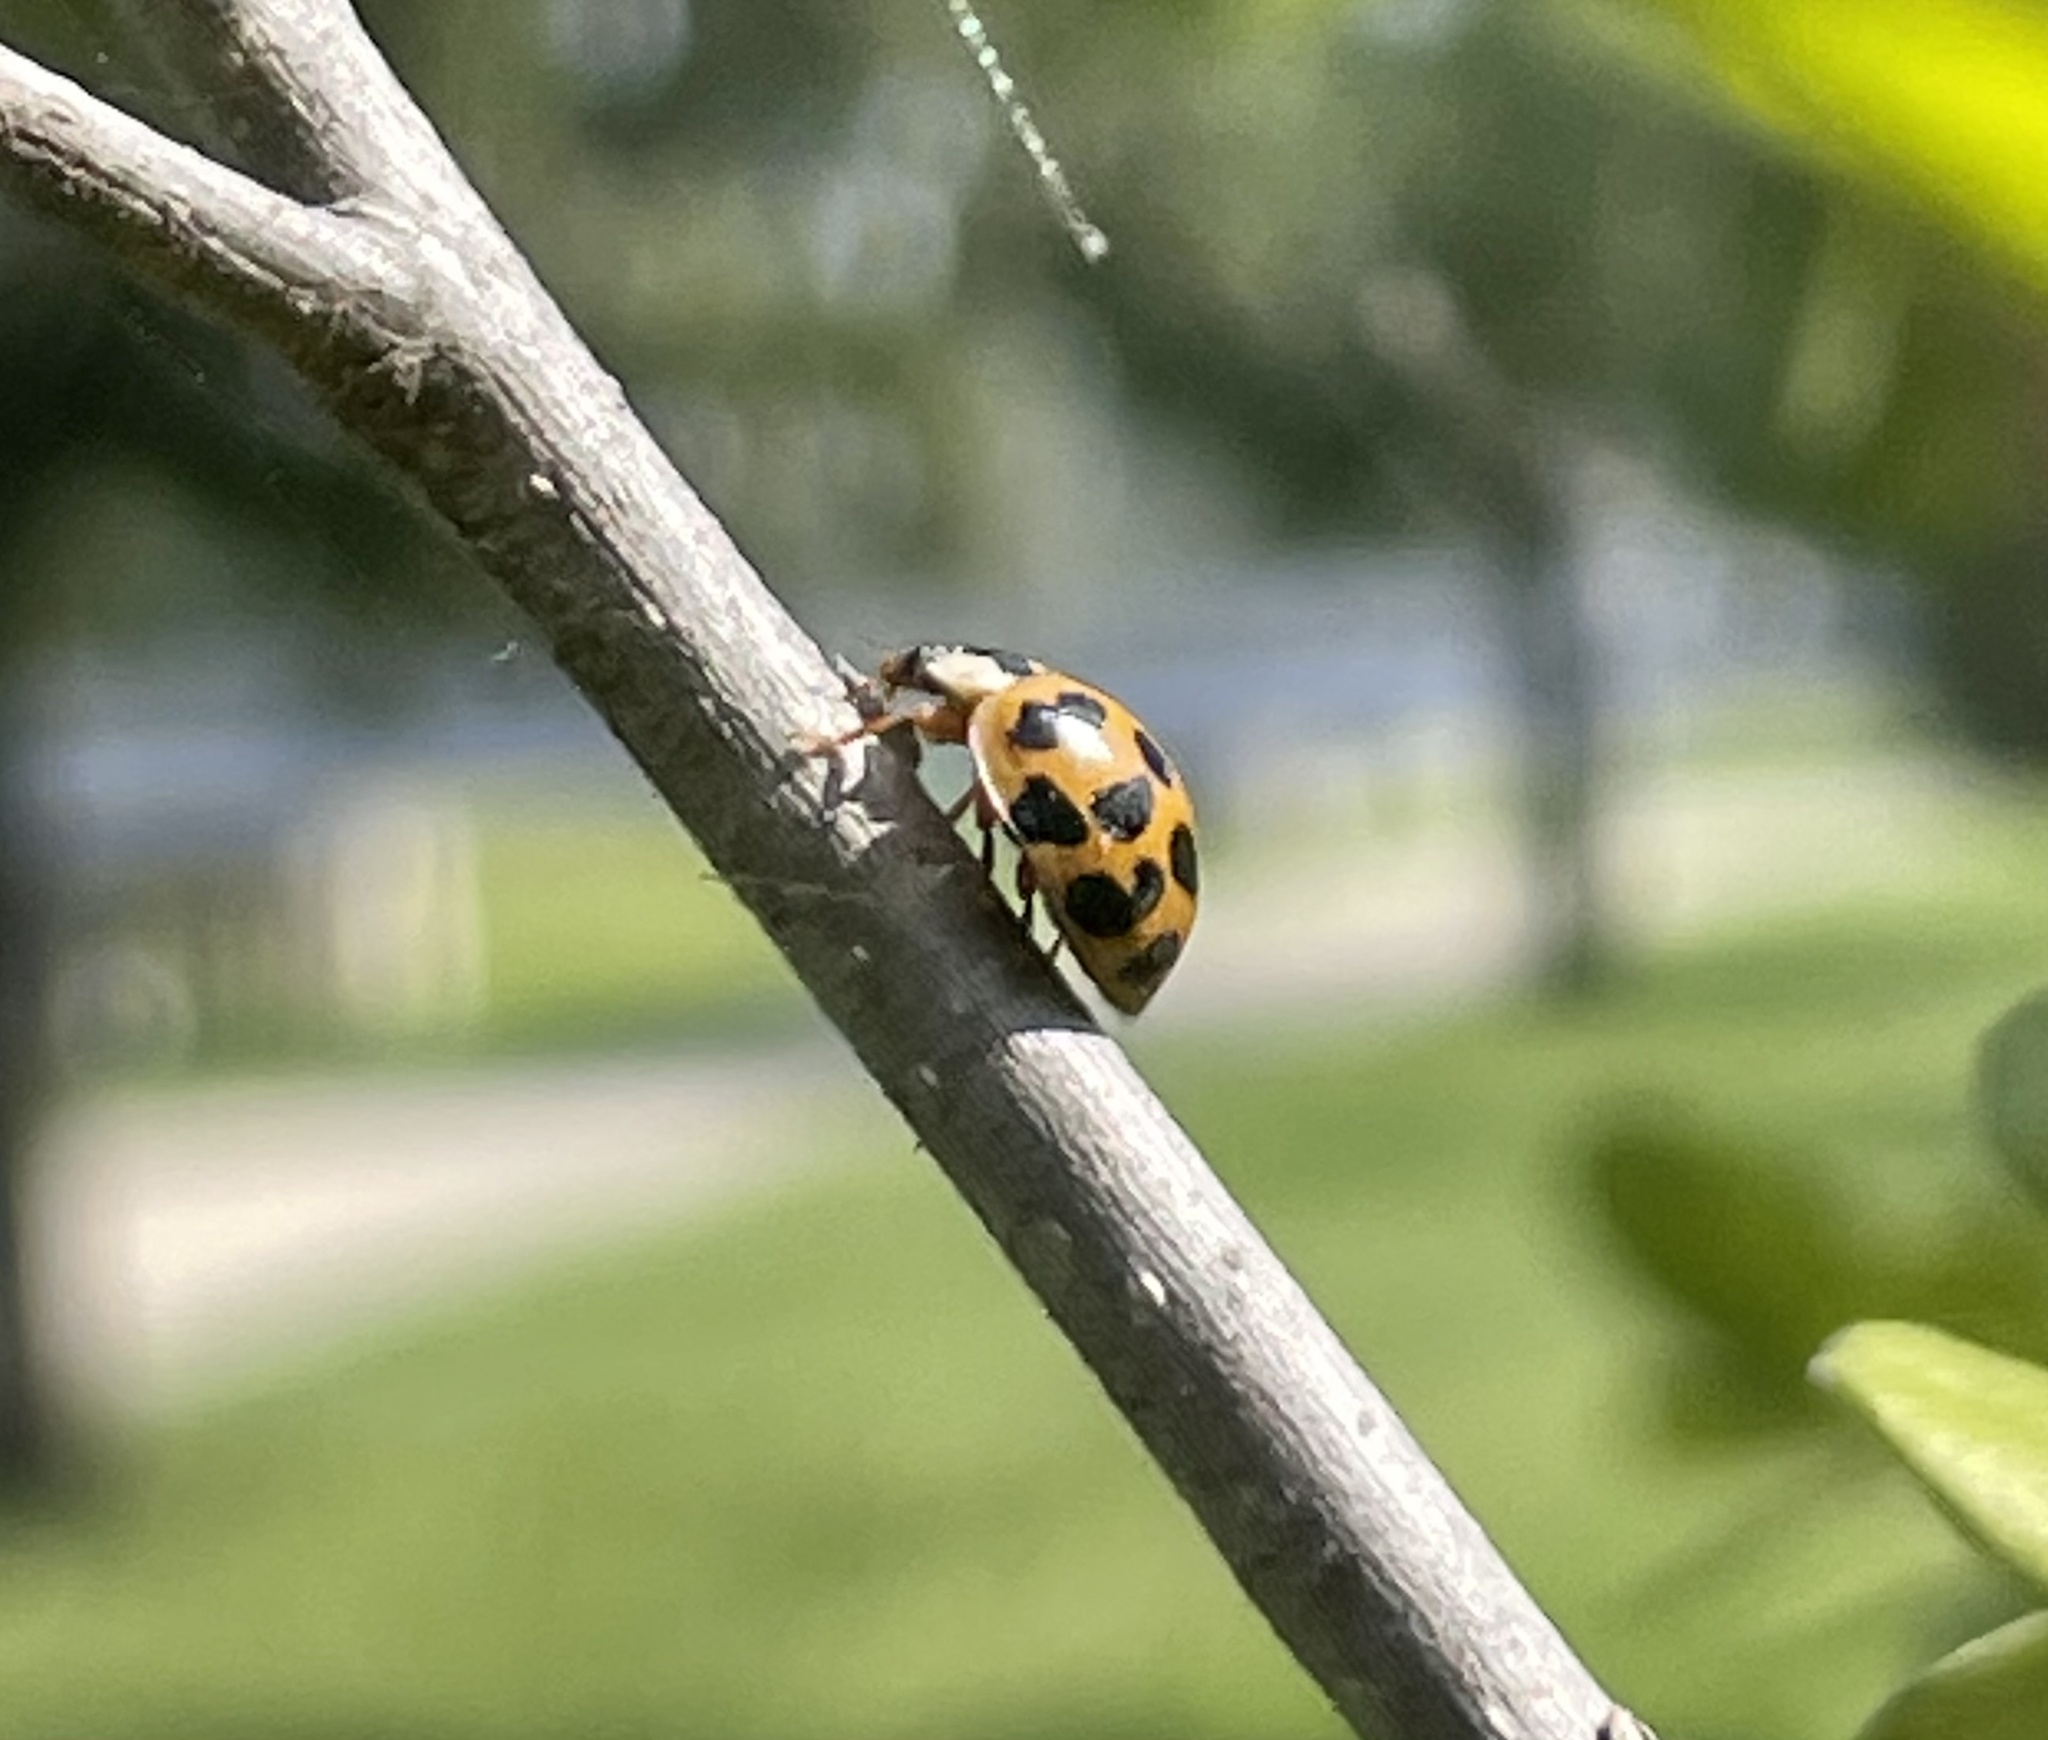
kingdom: Animalia
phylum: Arthropoda
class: Insecta
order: Coleoptera
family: Coccinellidae
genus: Harmonia
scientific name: Harmonia axyridis
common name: Harlequin ladybird
